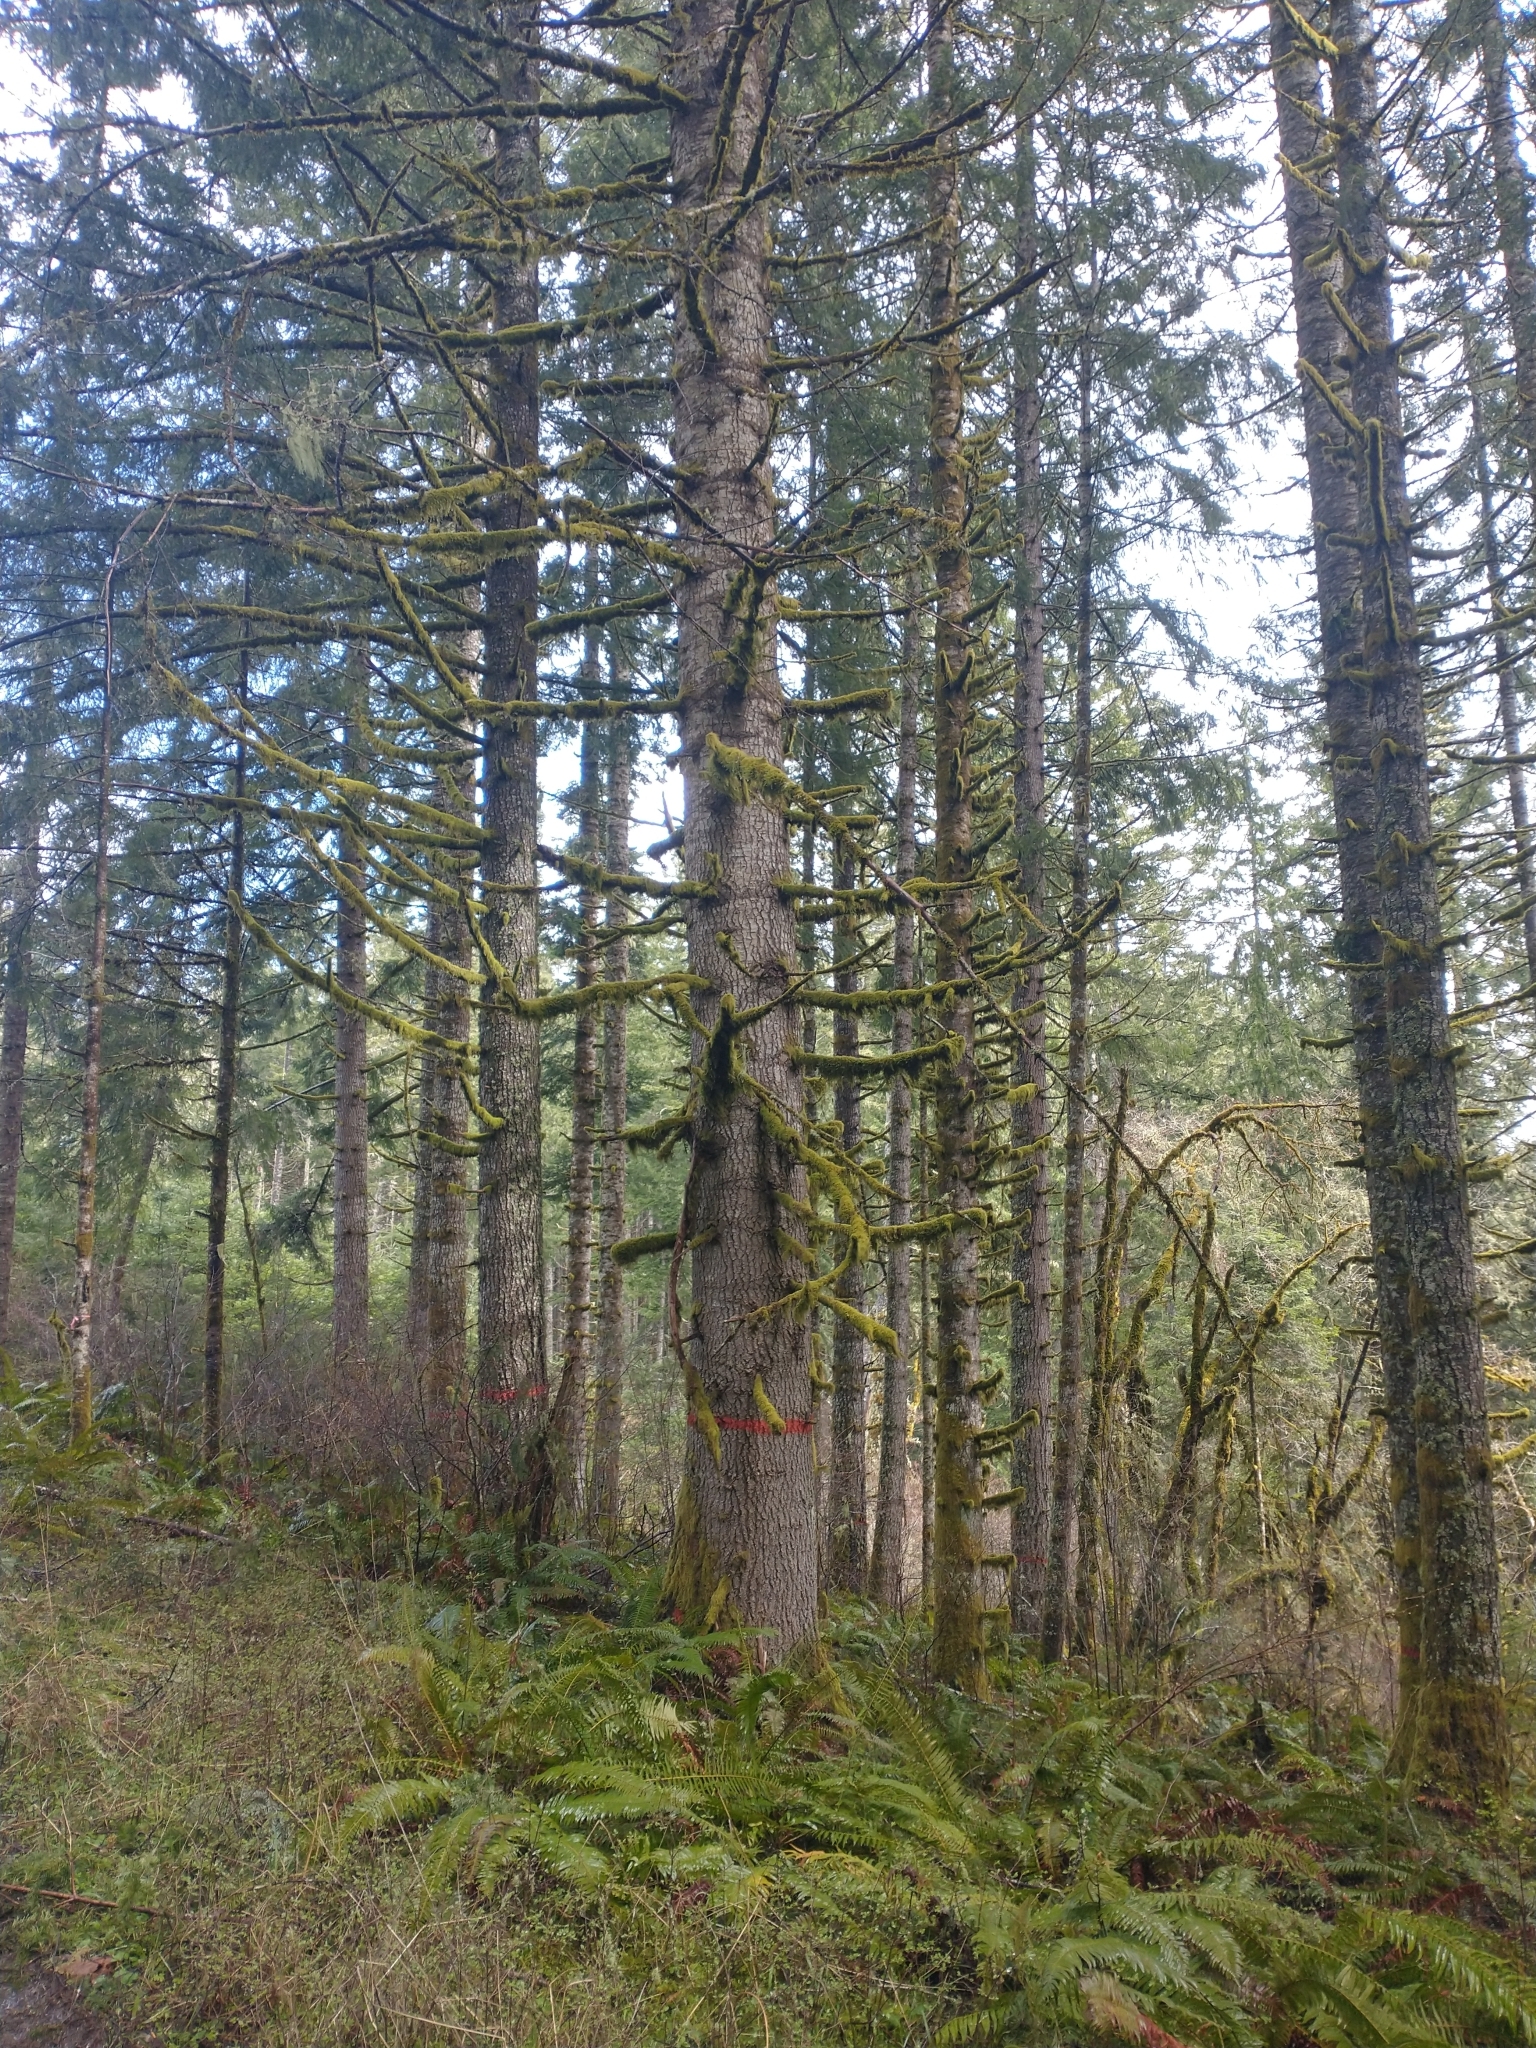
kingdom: Plantae
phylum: Tracheophyta
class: Pinopsida
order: Pinales
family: Pinaceae
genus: Abies
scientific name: Abies grandis
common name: Giant fir
